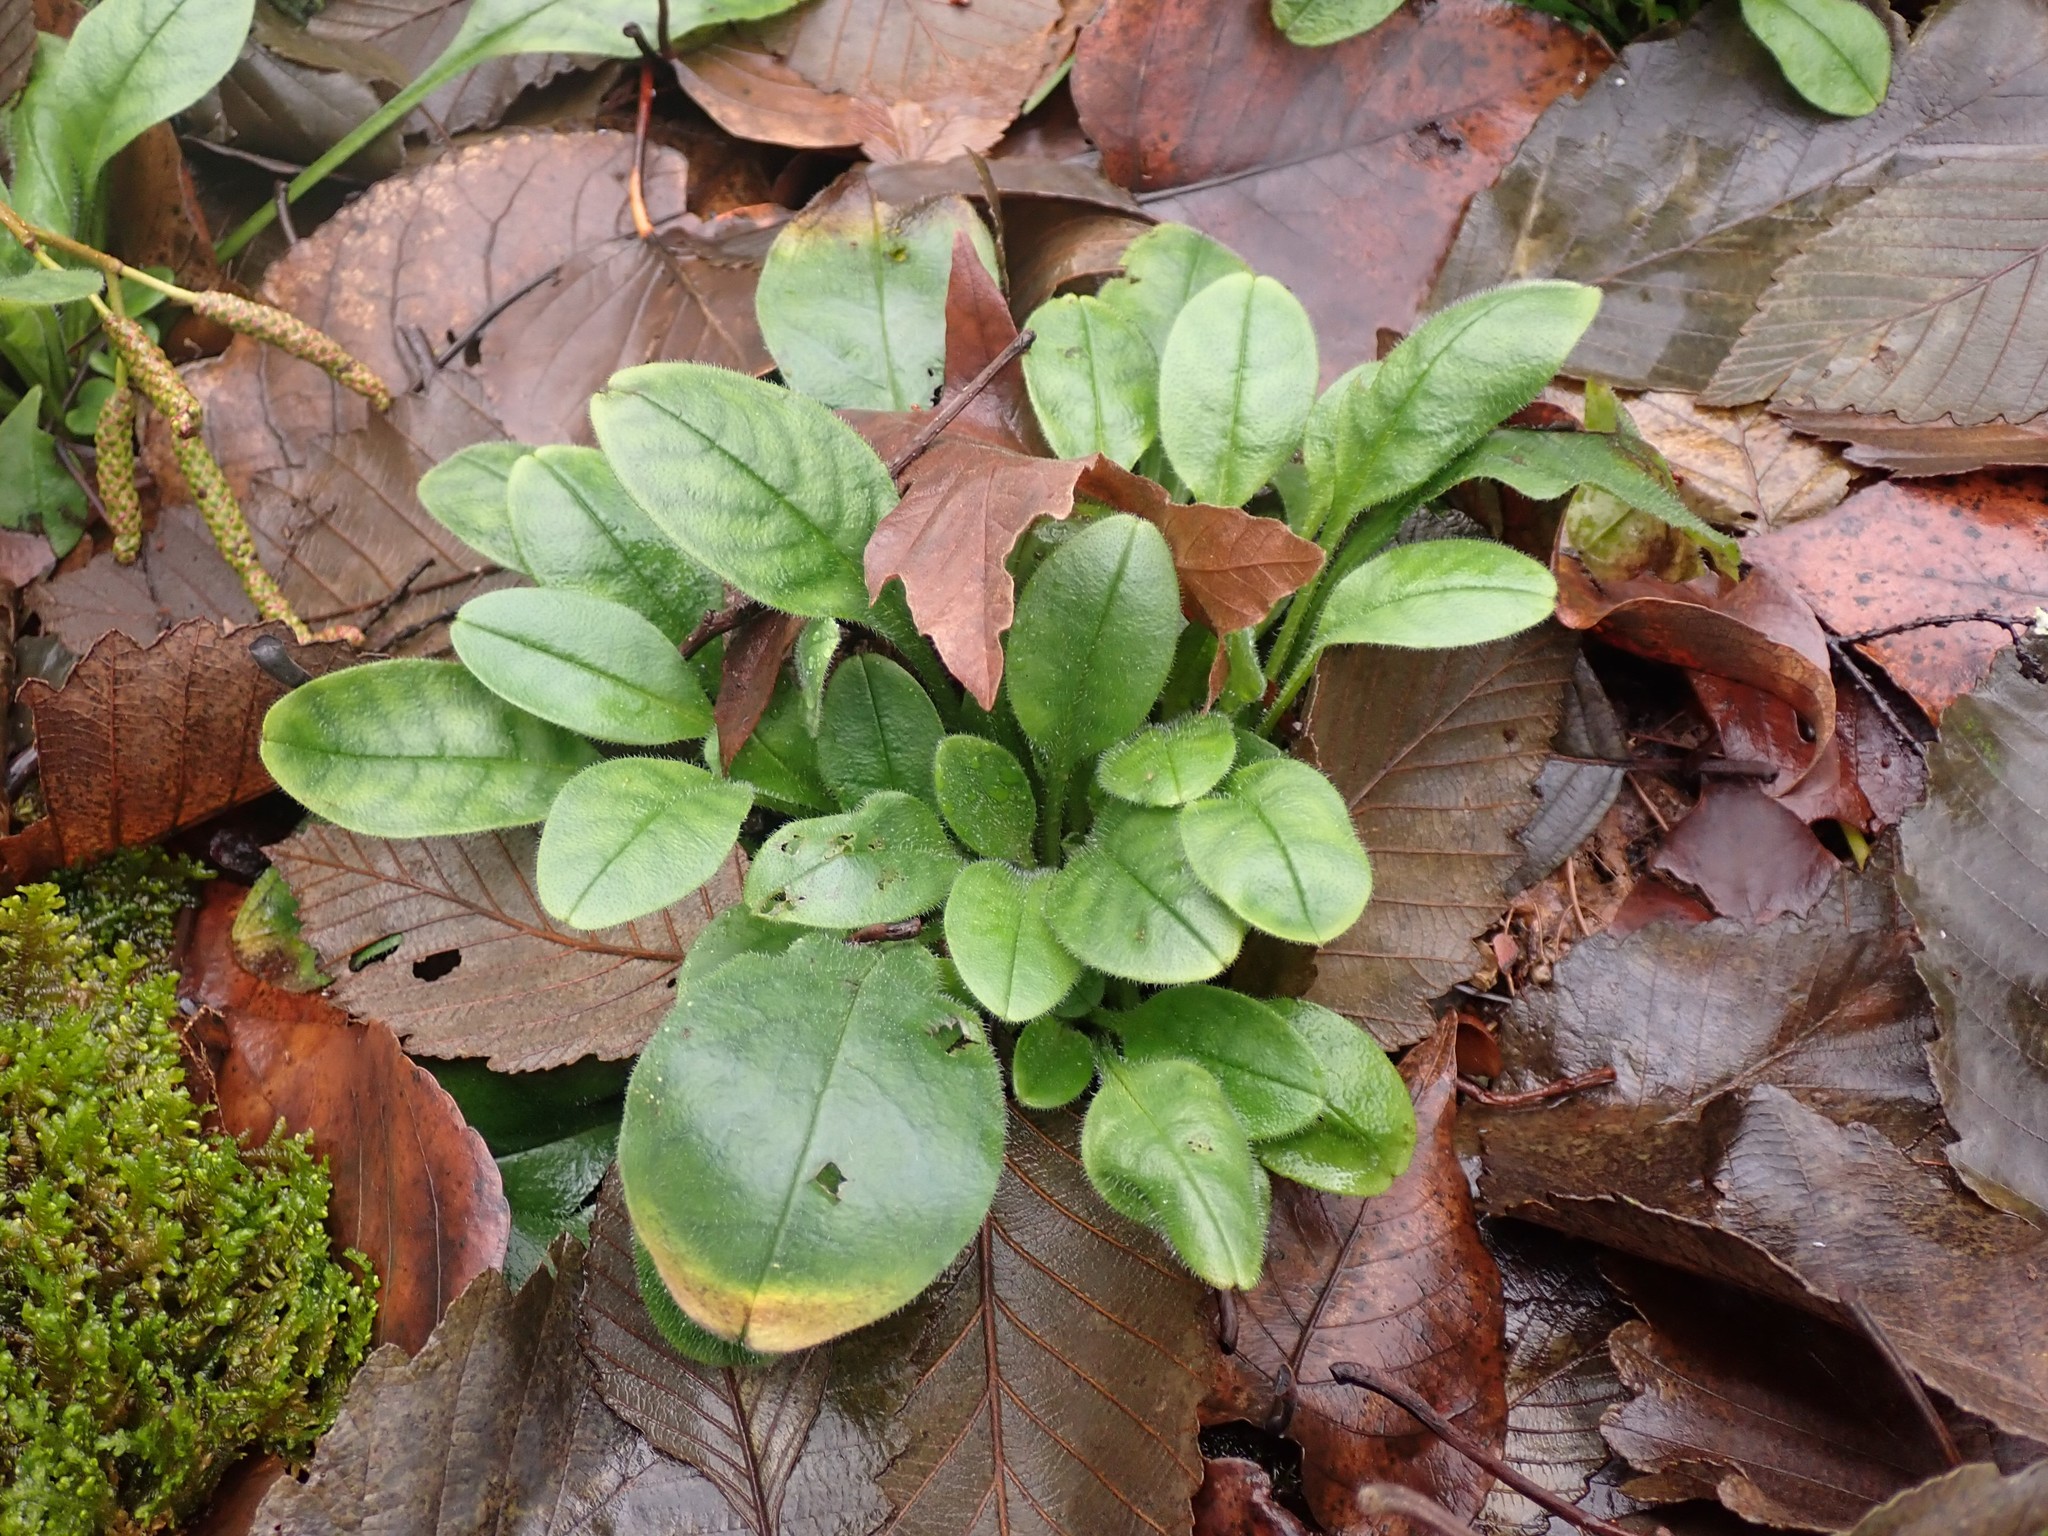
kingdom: Plantae
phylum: Tracheophyta
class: Magnoliopsida
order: Boraginales
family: Boraginaceae
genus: Myosotis
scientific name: Myosotis sylvatica
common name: Wood forget-me-not
